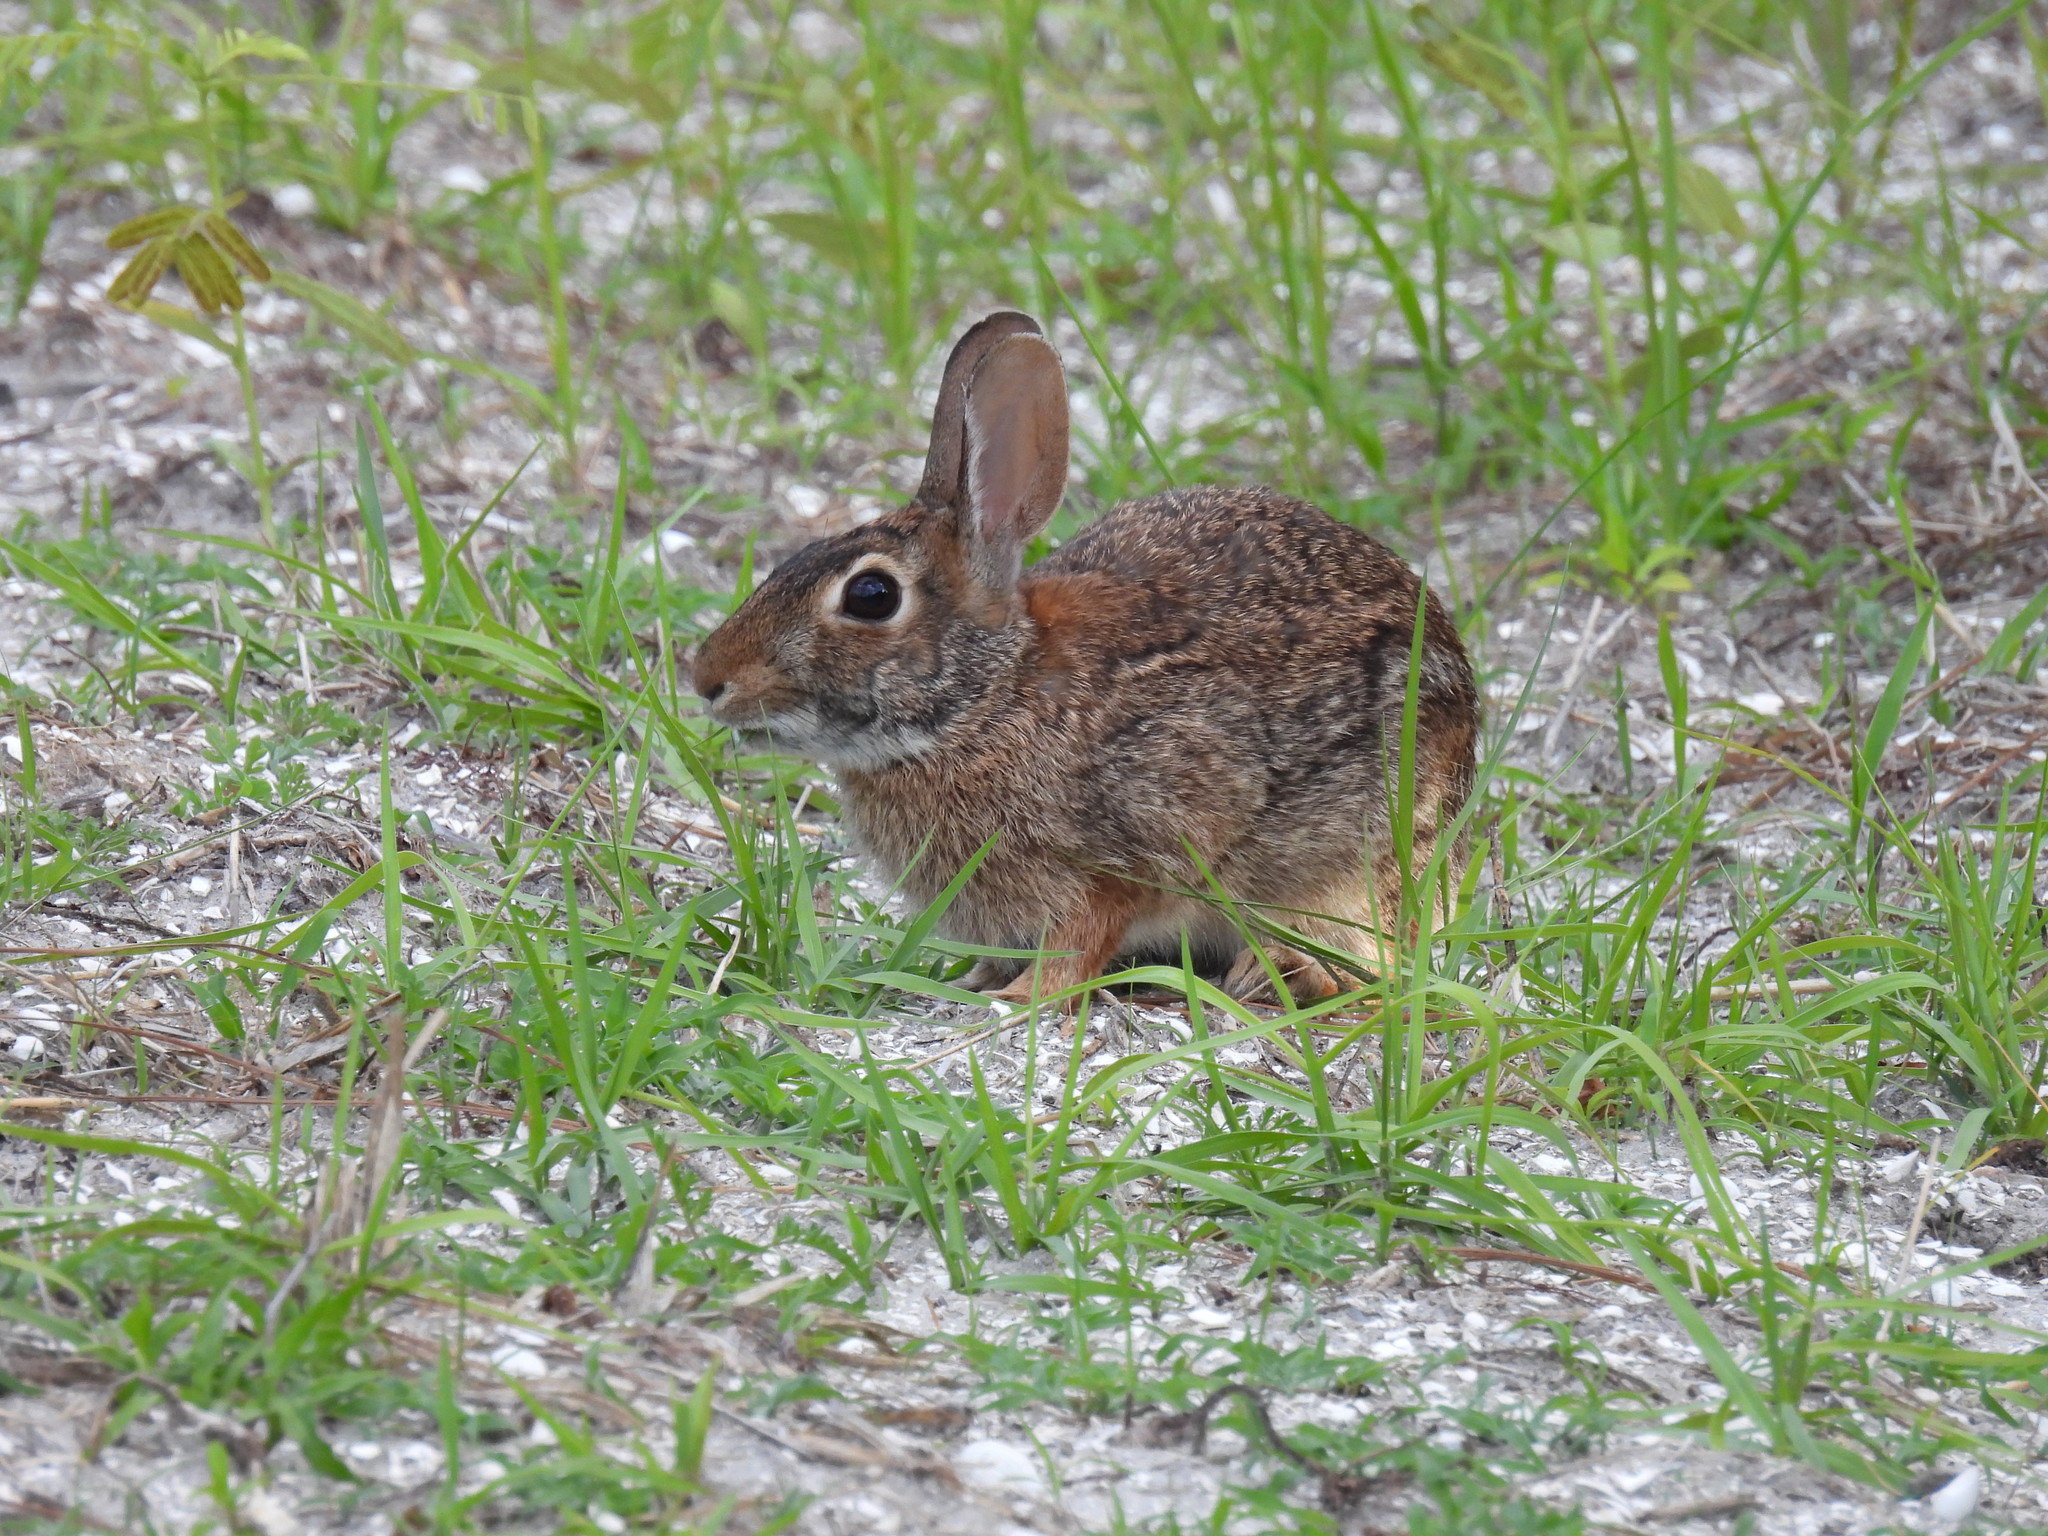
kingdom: Animalia
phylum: Chordata
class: Mammalia
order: Lagomorpha
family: Leporidae
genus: Sylvilagus
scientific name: Sylvilagus floridanus
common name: Eastern cottontail
